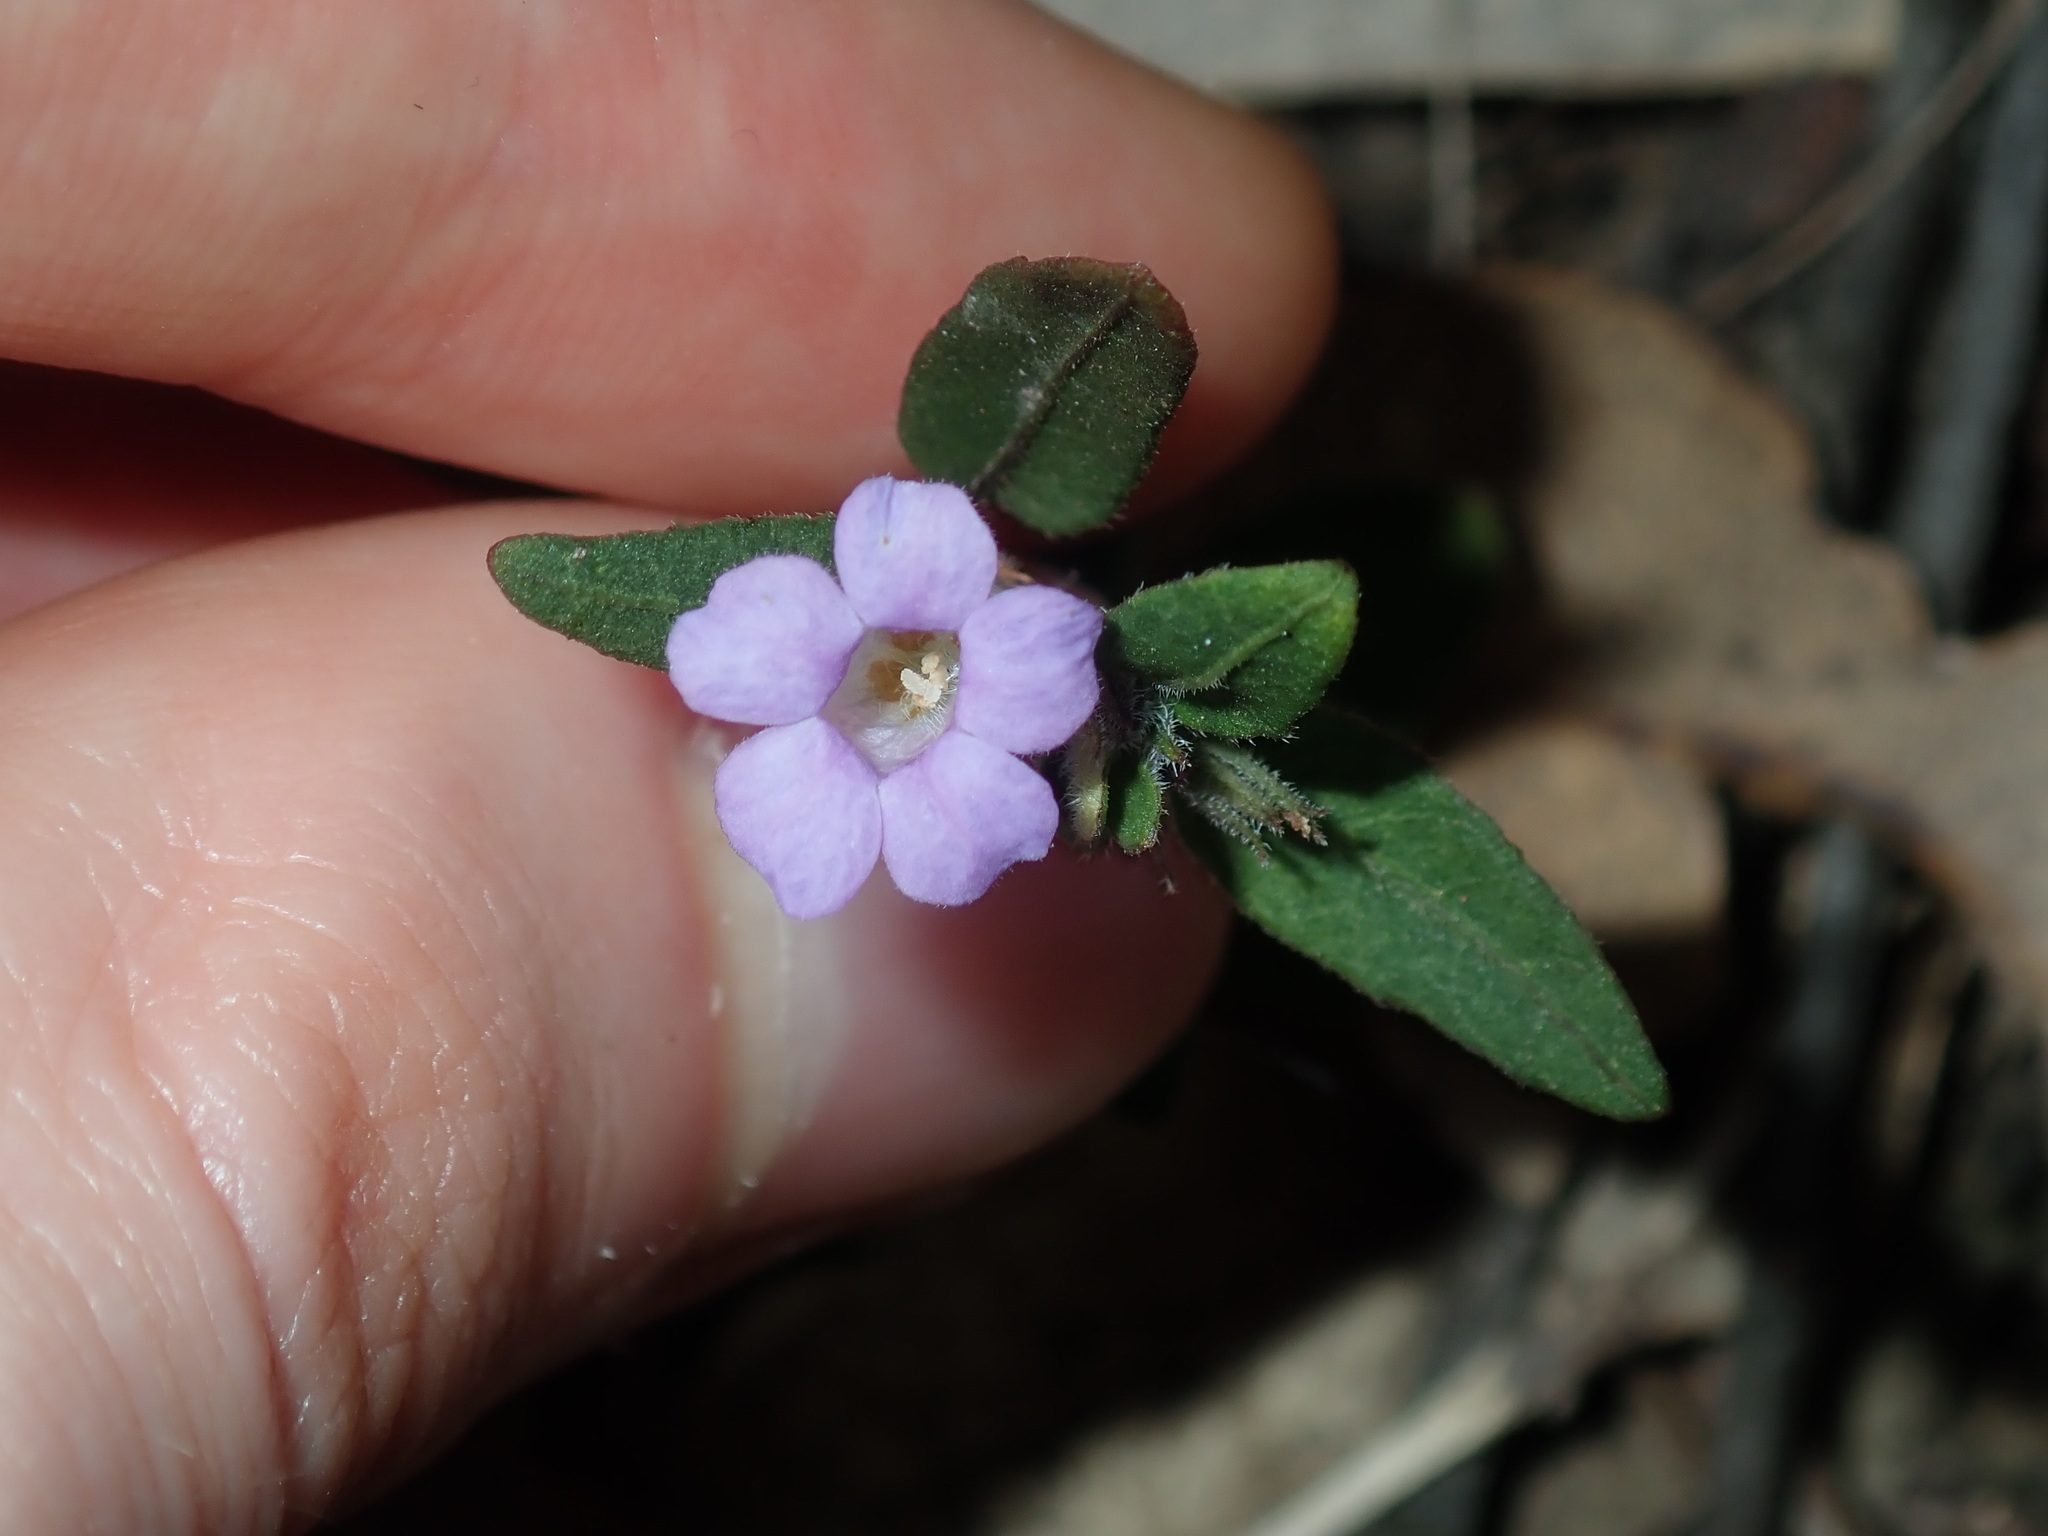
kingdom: Plantae
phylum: Tracheophyta
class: Magnoliopsida
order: Lamiales
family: Acanthaceae
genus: Brunoniella
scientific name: Brunoniella australis
